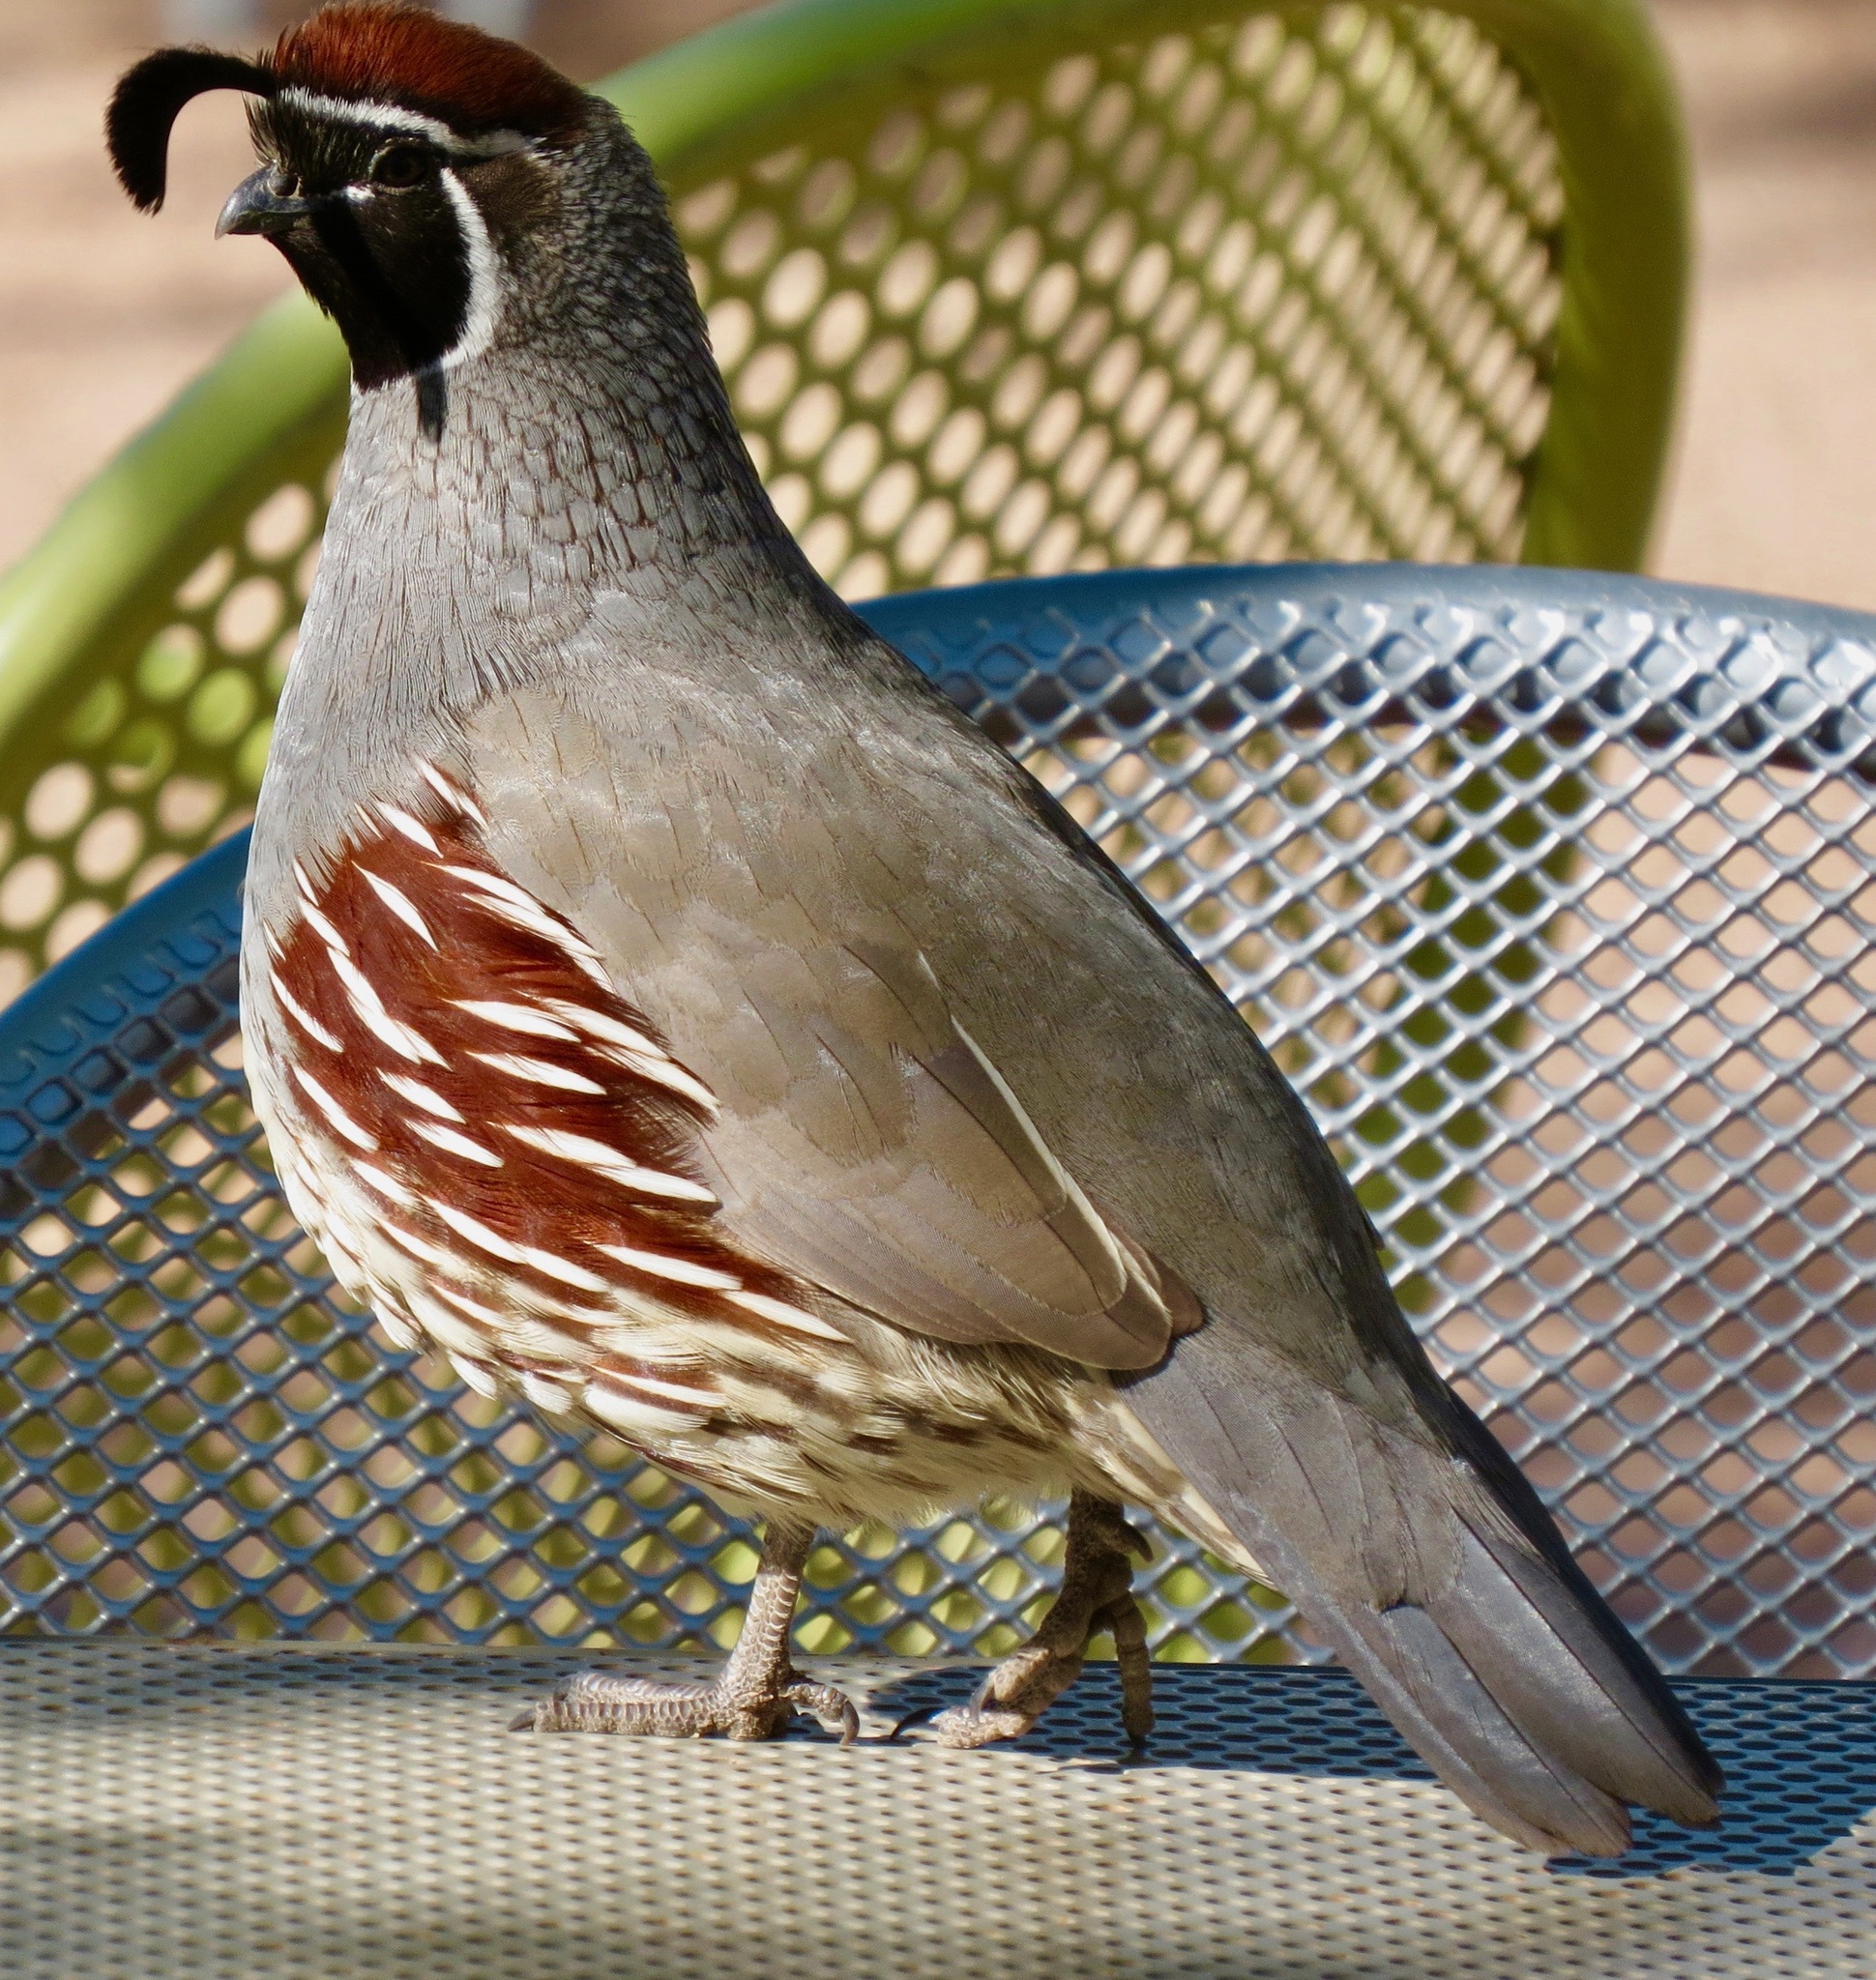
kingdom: Animalia
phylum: Chordata
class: Aves
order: Galliformes
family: Odontophoridae
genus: Callipepla
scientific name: Callipepla gambelii
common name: Gambel's quail
